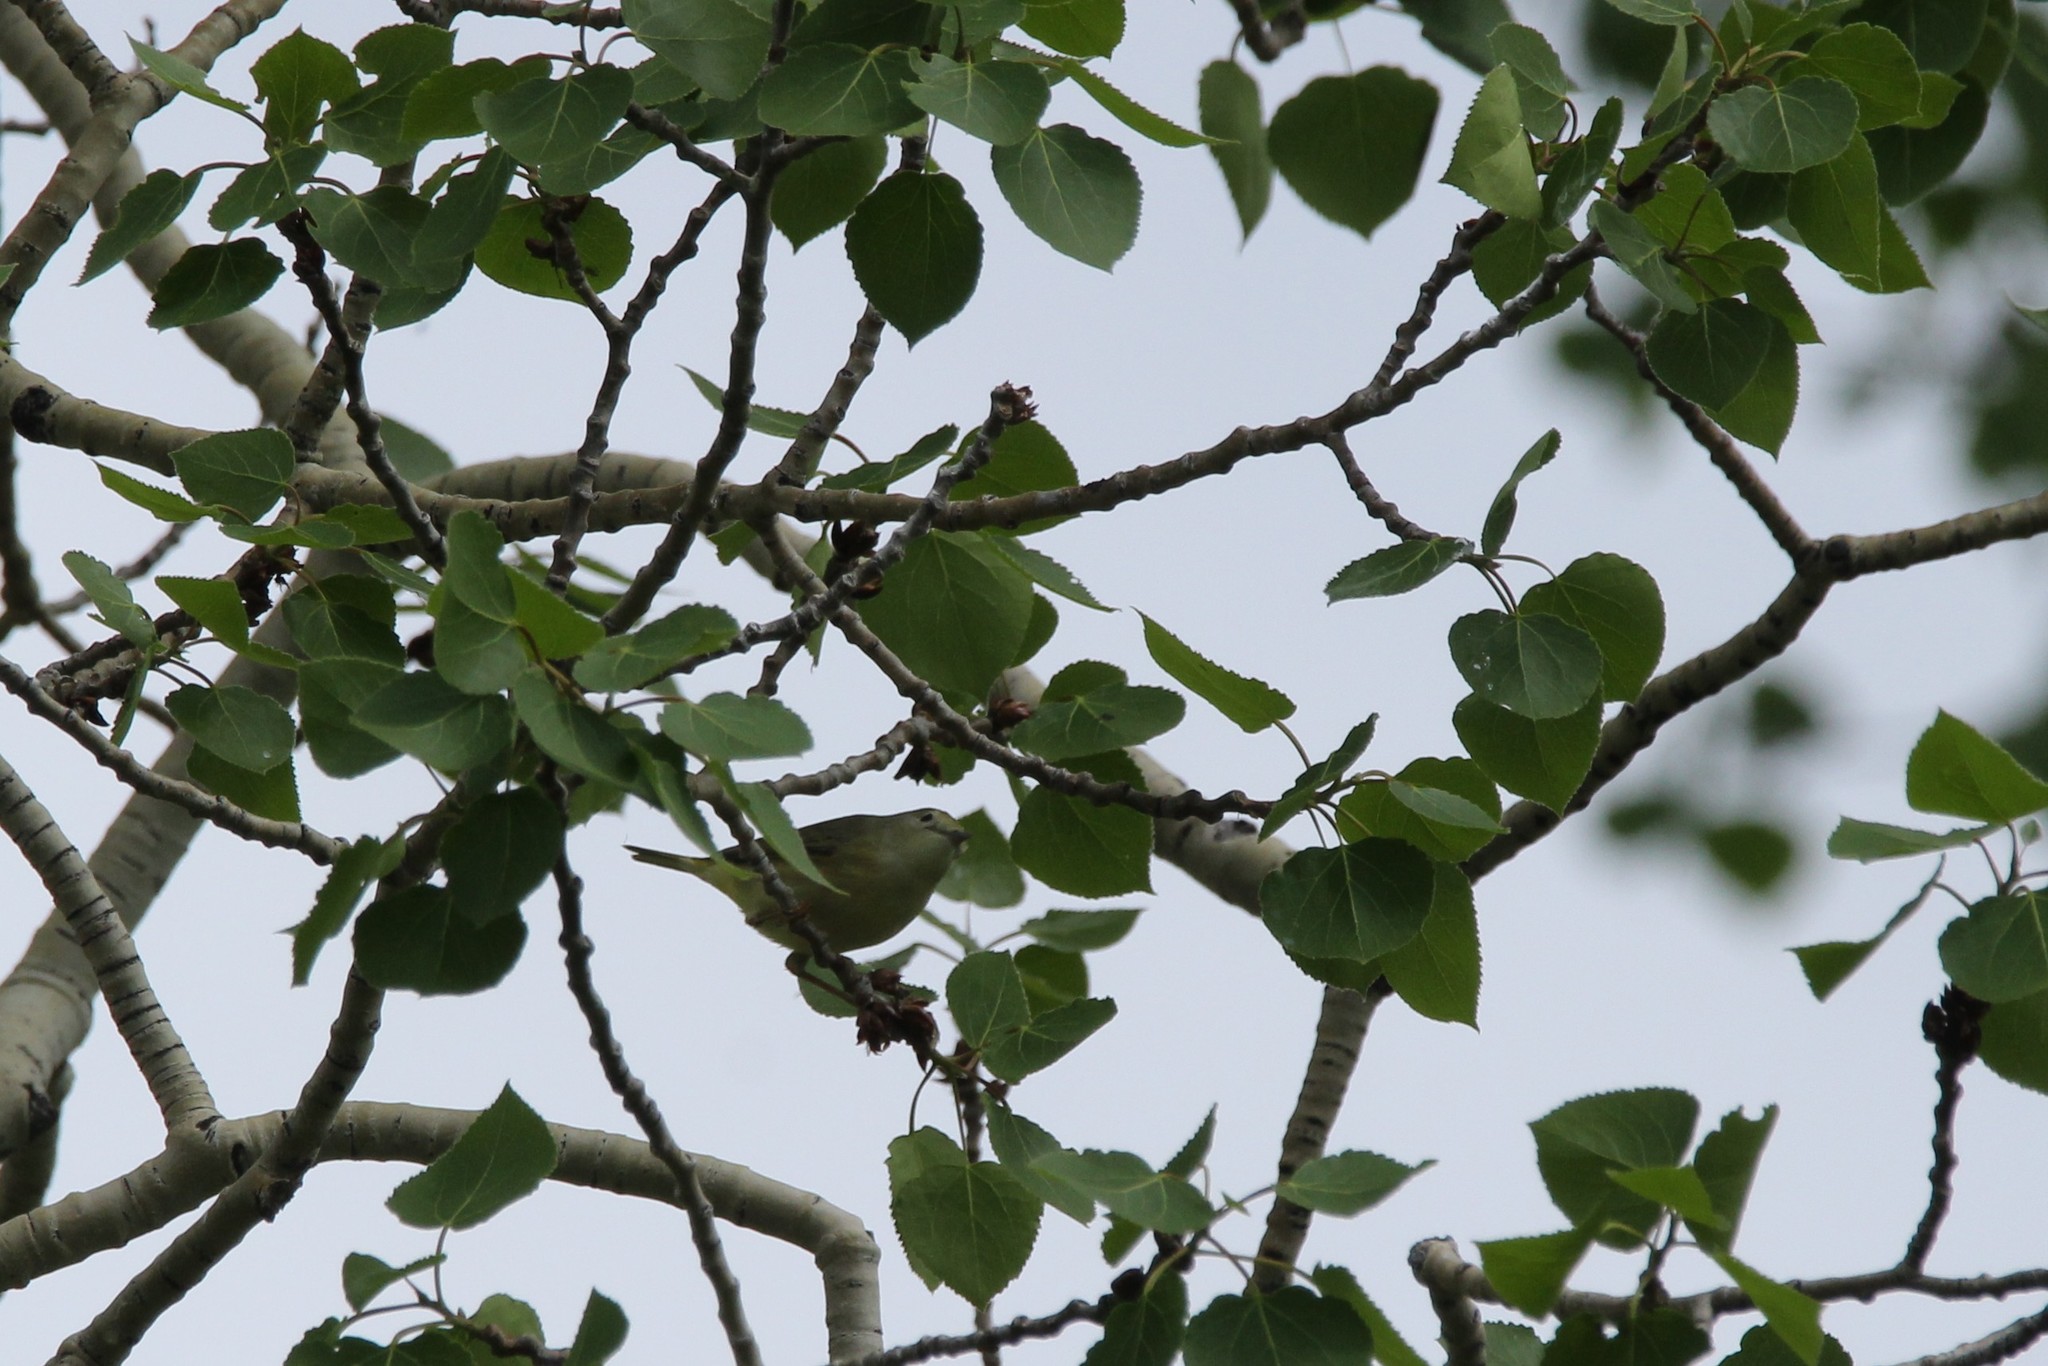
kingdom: Animalia
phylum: Chordata
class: Aves
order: Passeriformes
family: Parulidae
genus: Setophaga
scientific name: Setophaga petechia
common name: Yellow warbler
